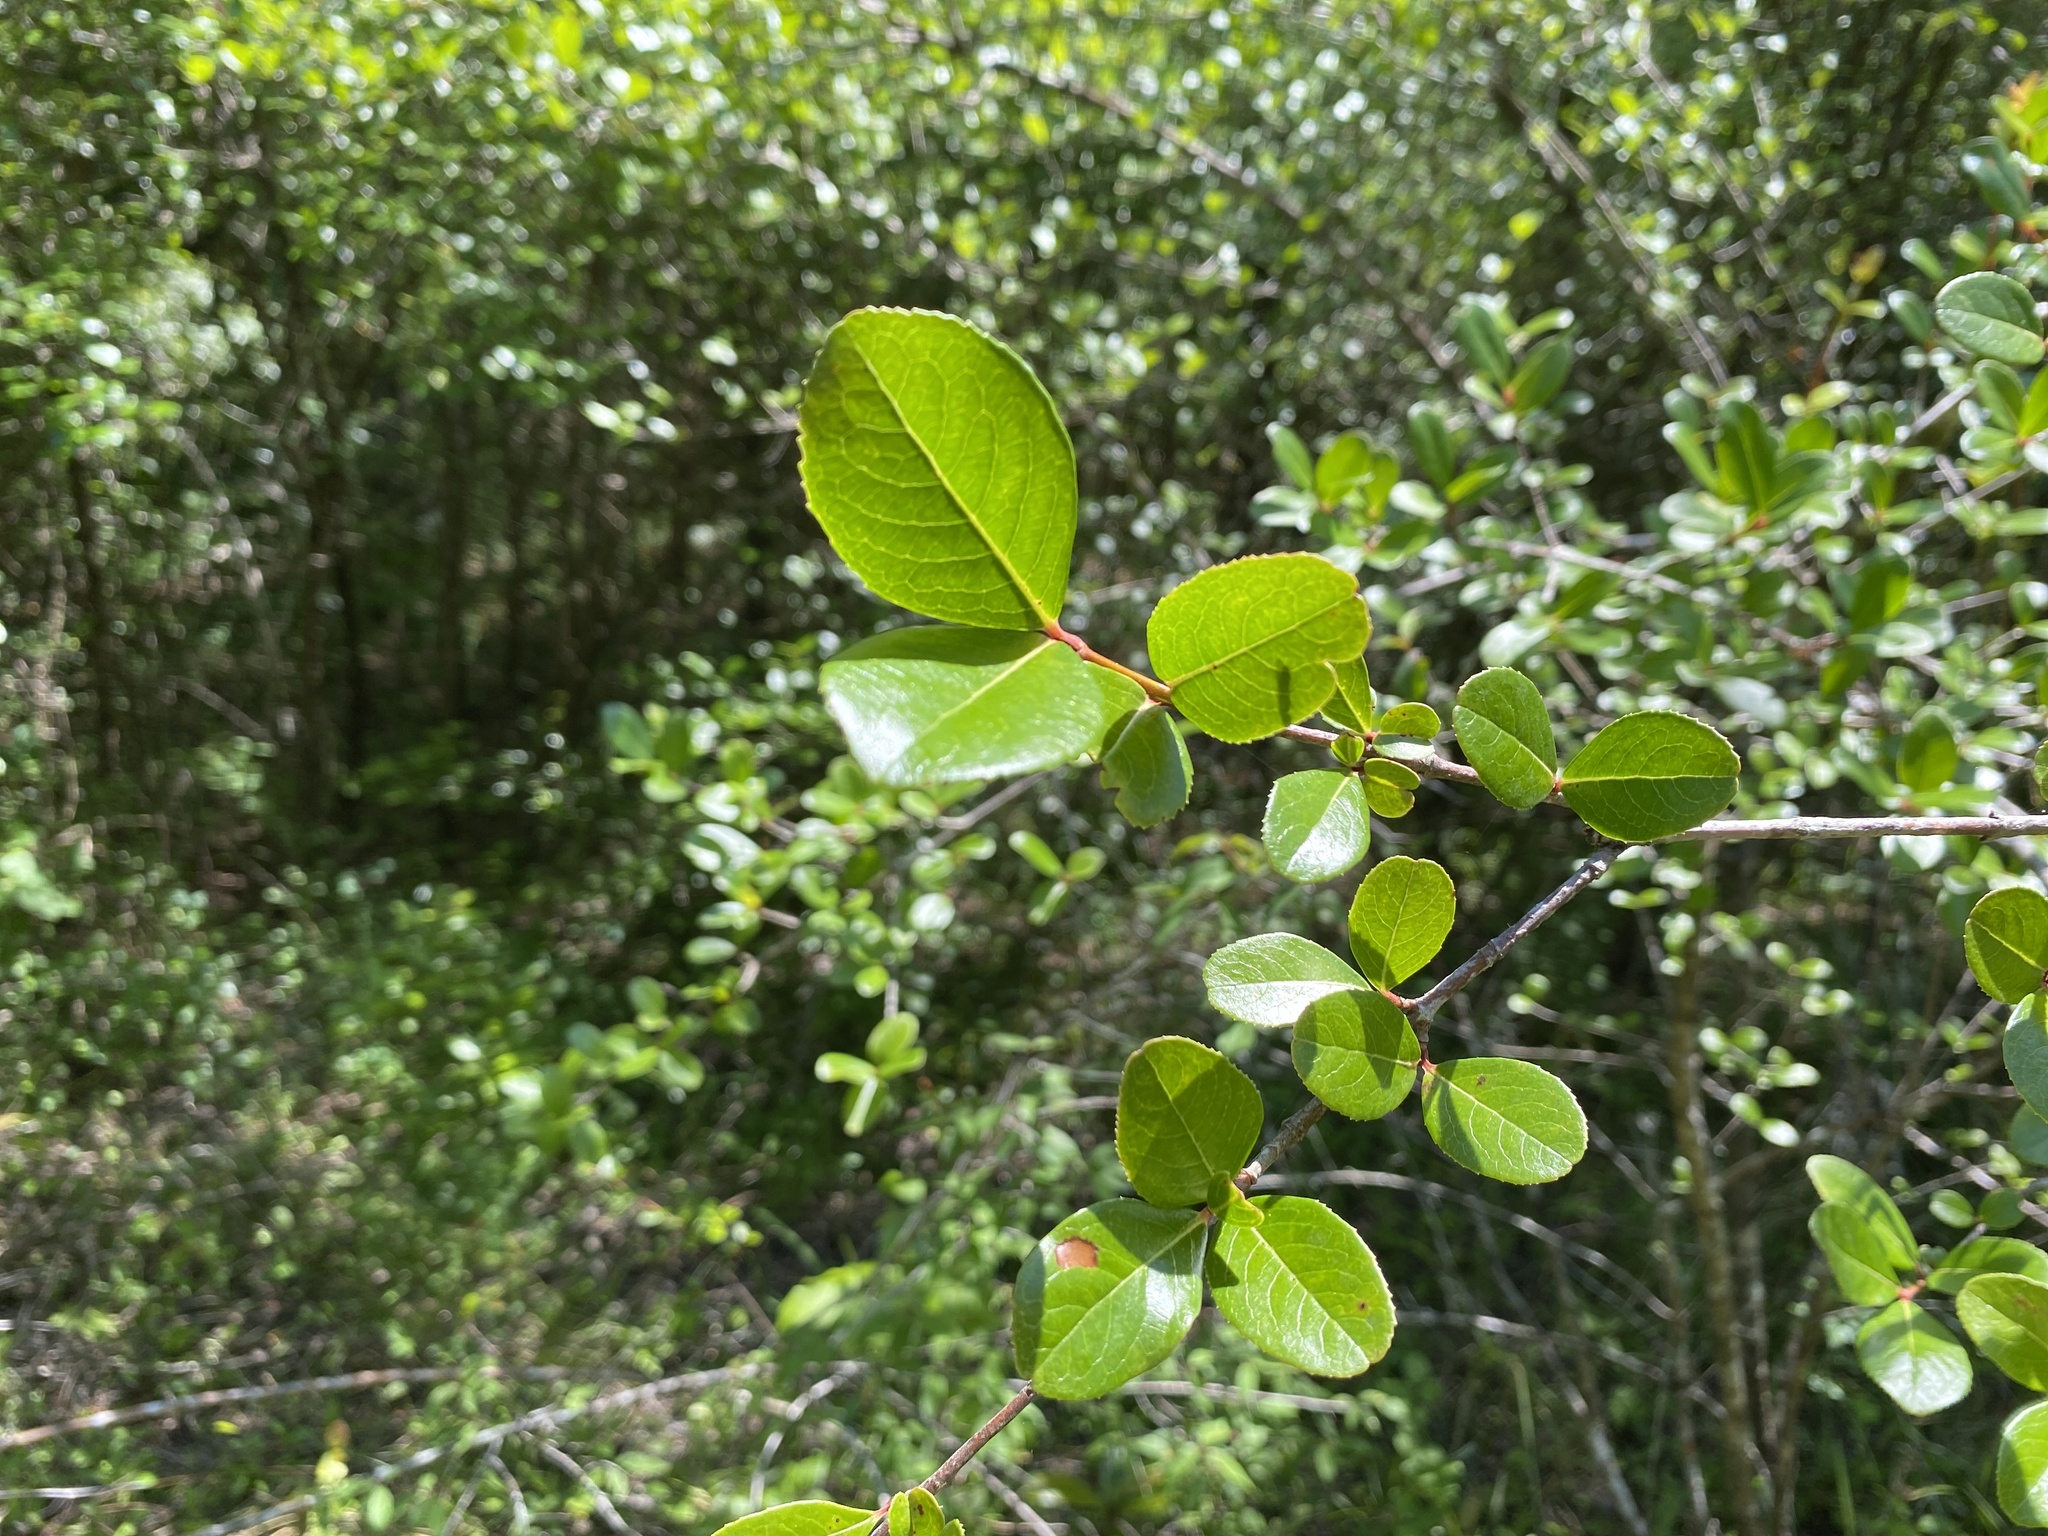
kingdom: Plantae
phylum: Tracheophyta
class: Magnoliopsida
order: Dipsacales
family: Viburnaceae
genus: Viburnum
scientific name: Viburnum rufidulum
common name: Blue haw
